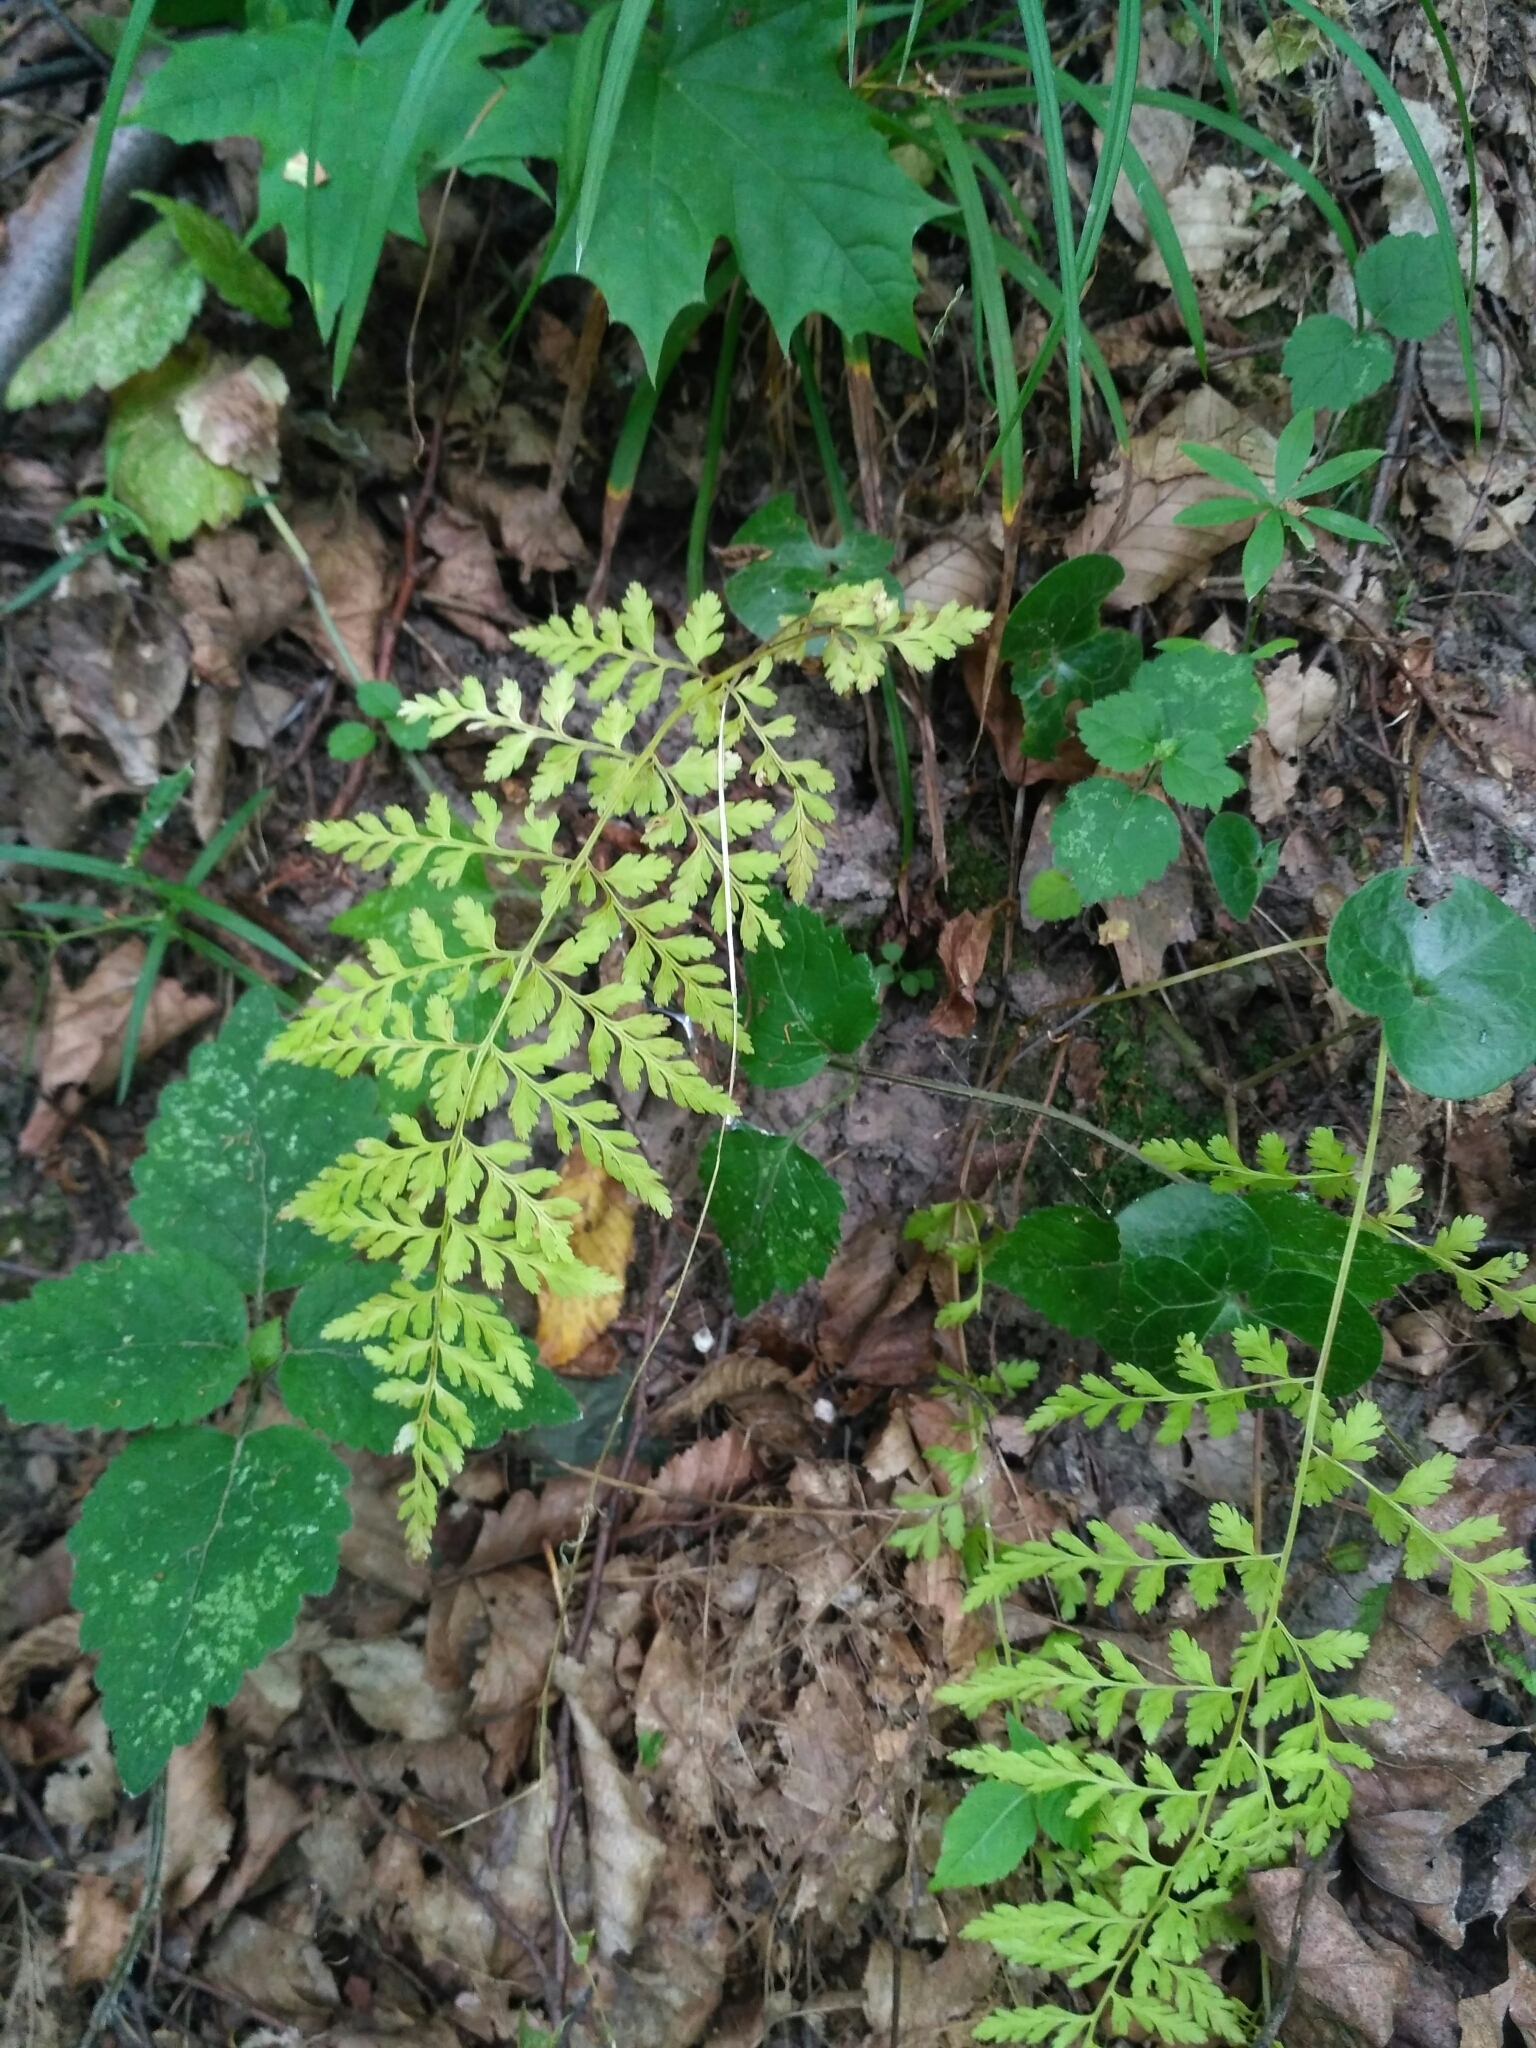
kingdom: Plantae
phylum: Tracheophyta
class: Polypodiopsida
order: Polypodiales
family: Cystopteridaceae
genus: Cystopteris
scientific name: Cystopteris fragilis
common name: Brittle bladder fern
